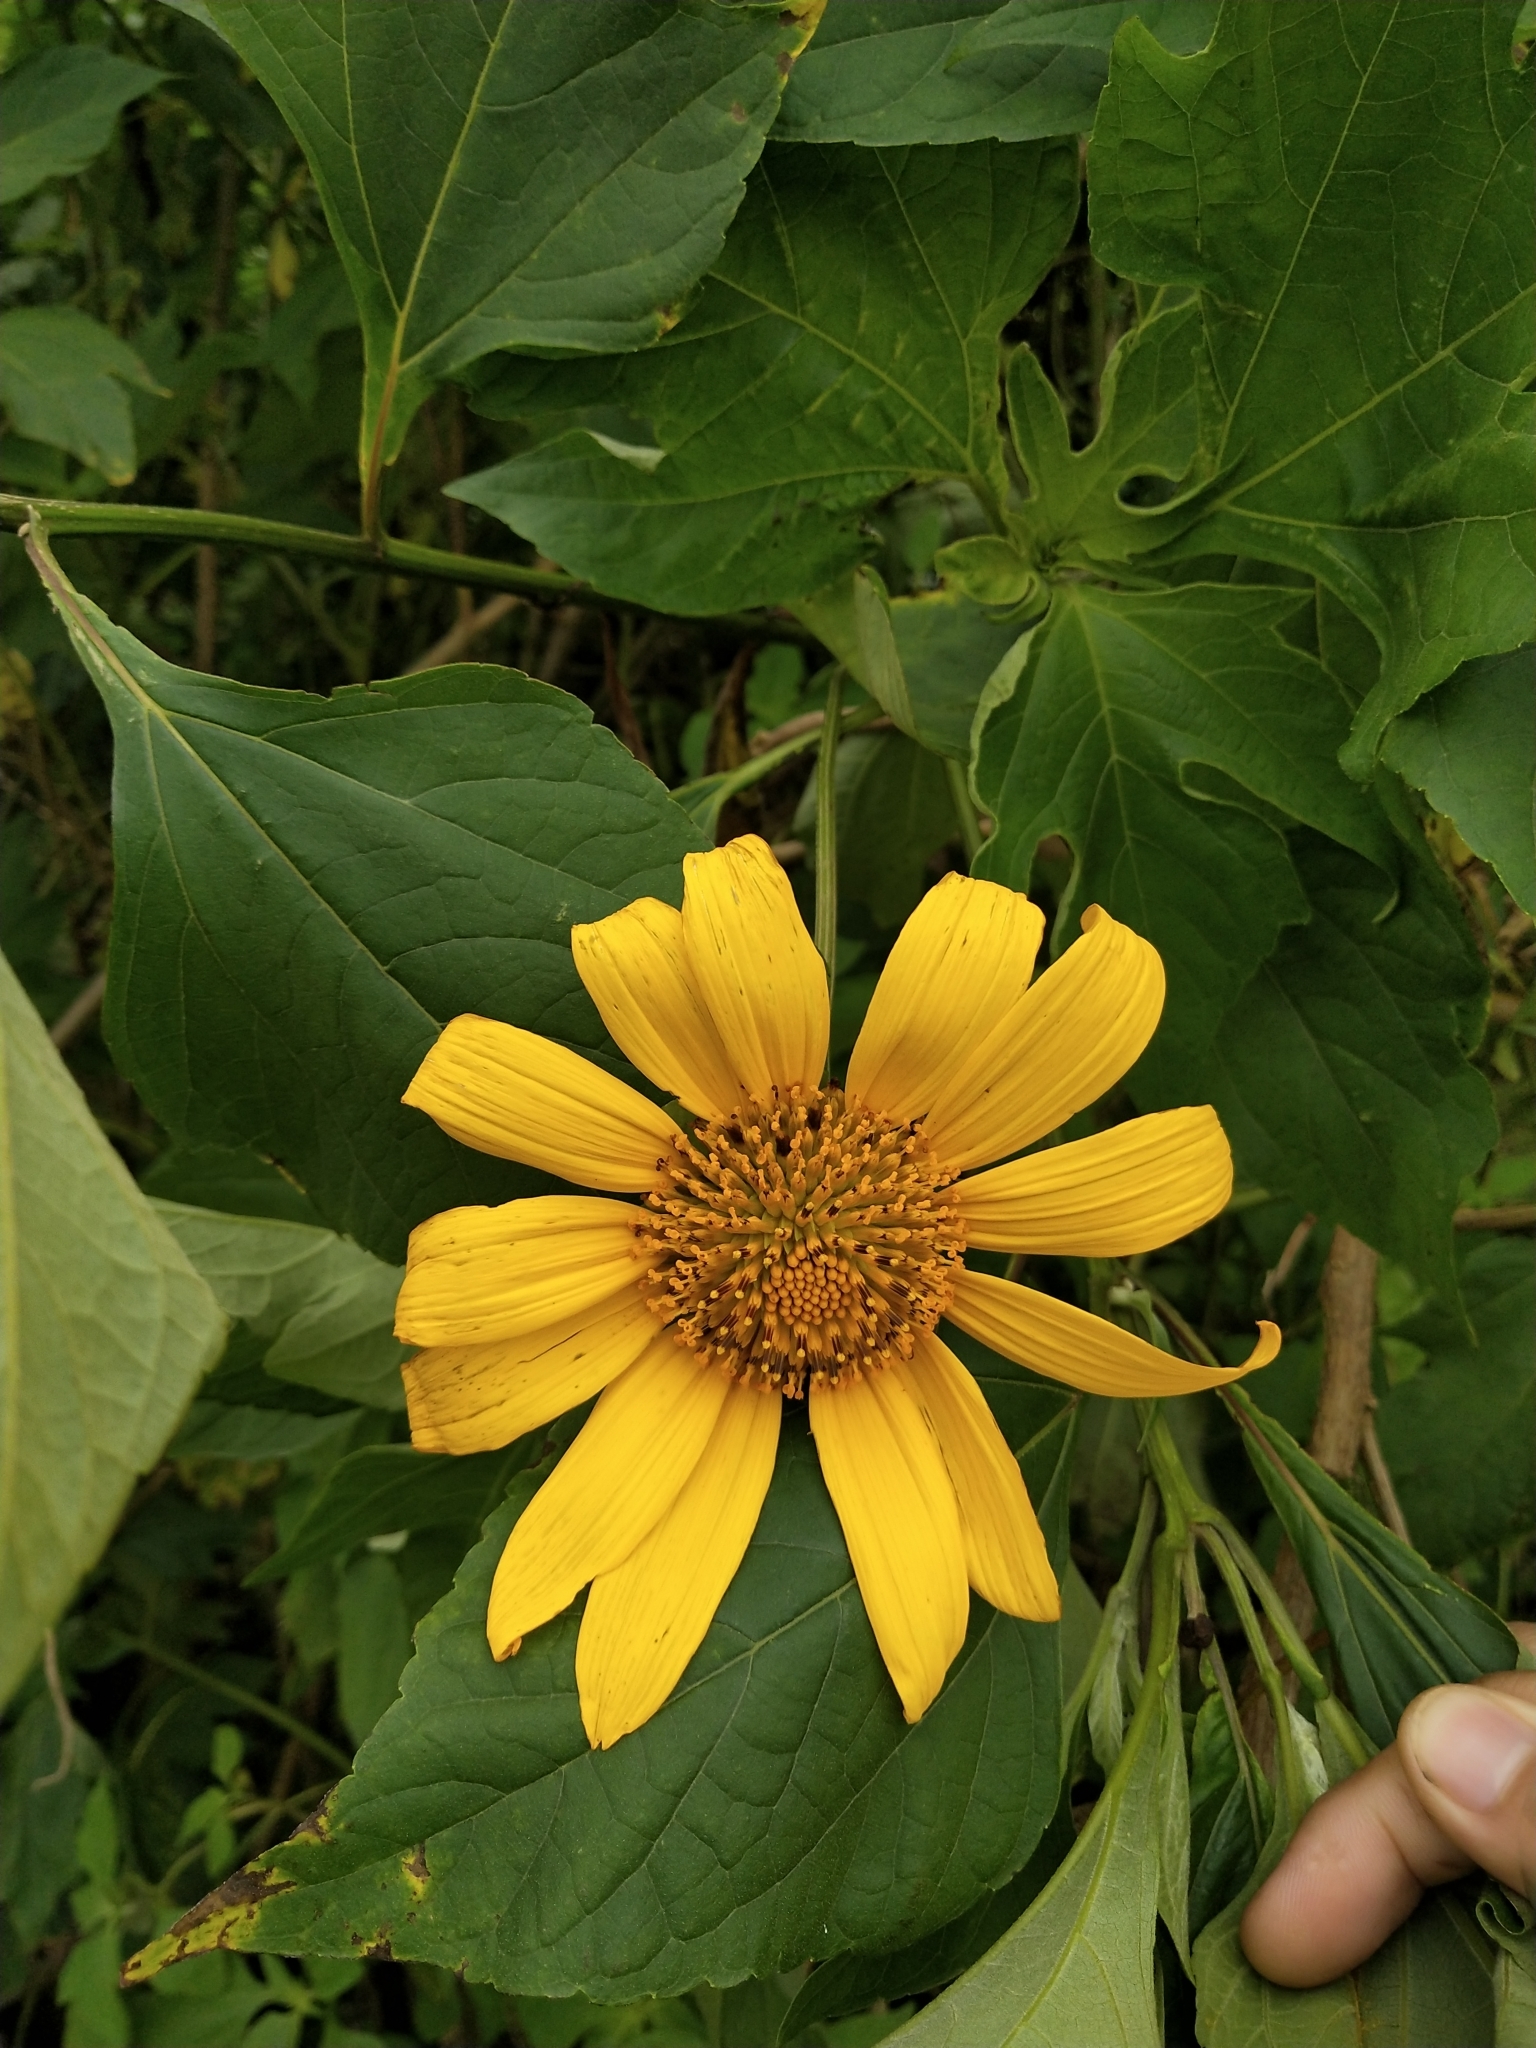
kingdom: Plantae
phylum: Tracheophyta
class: Magnoliopsida
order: Asterales
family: Asteraceae
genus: Tithonia
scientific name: Tithonia diversifolia
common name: Tree marigold
